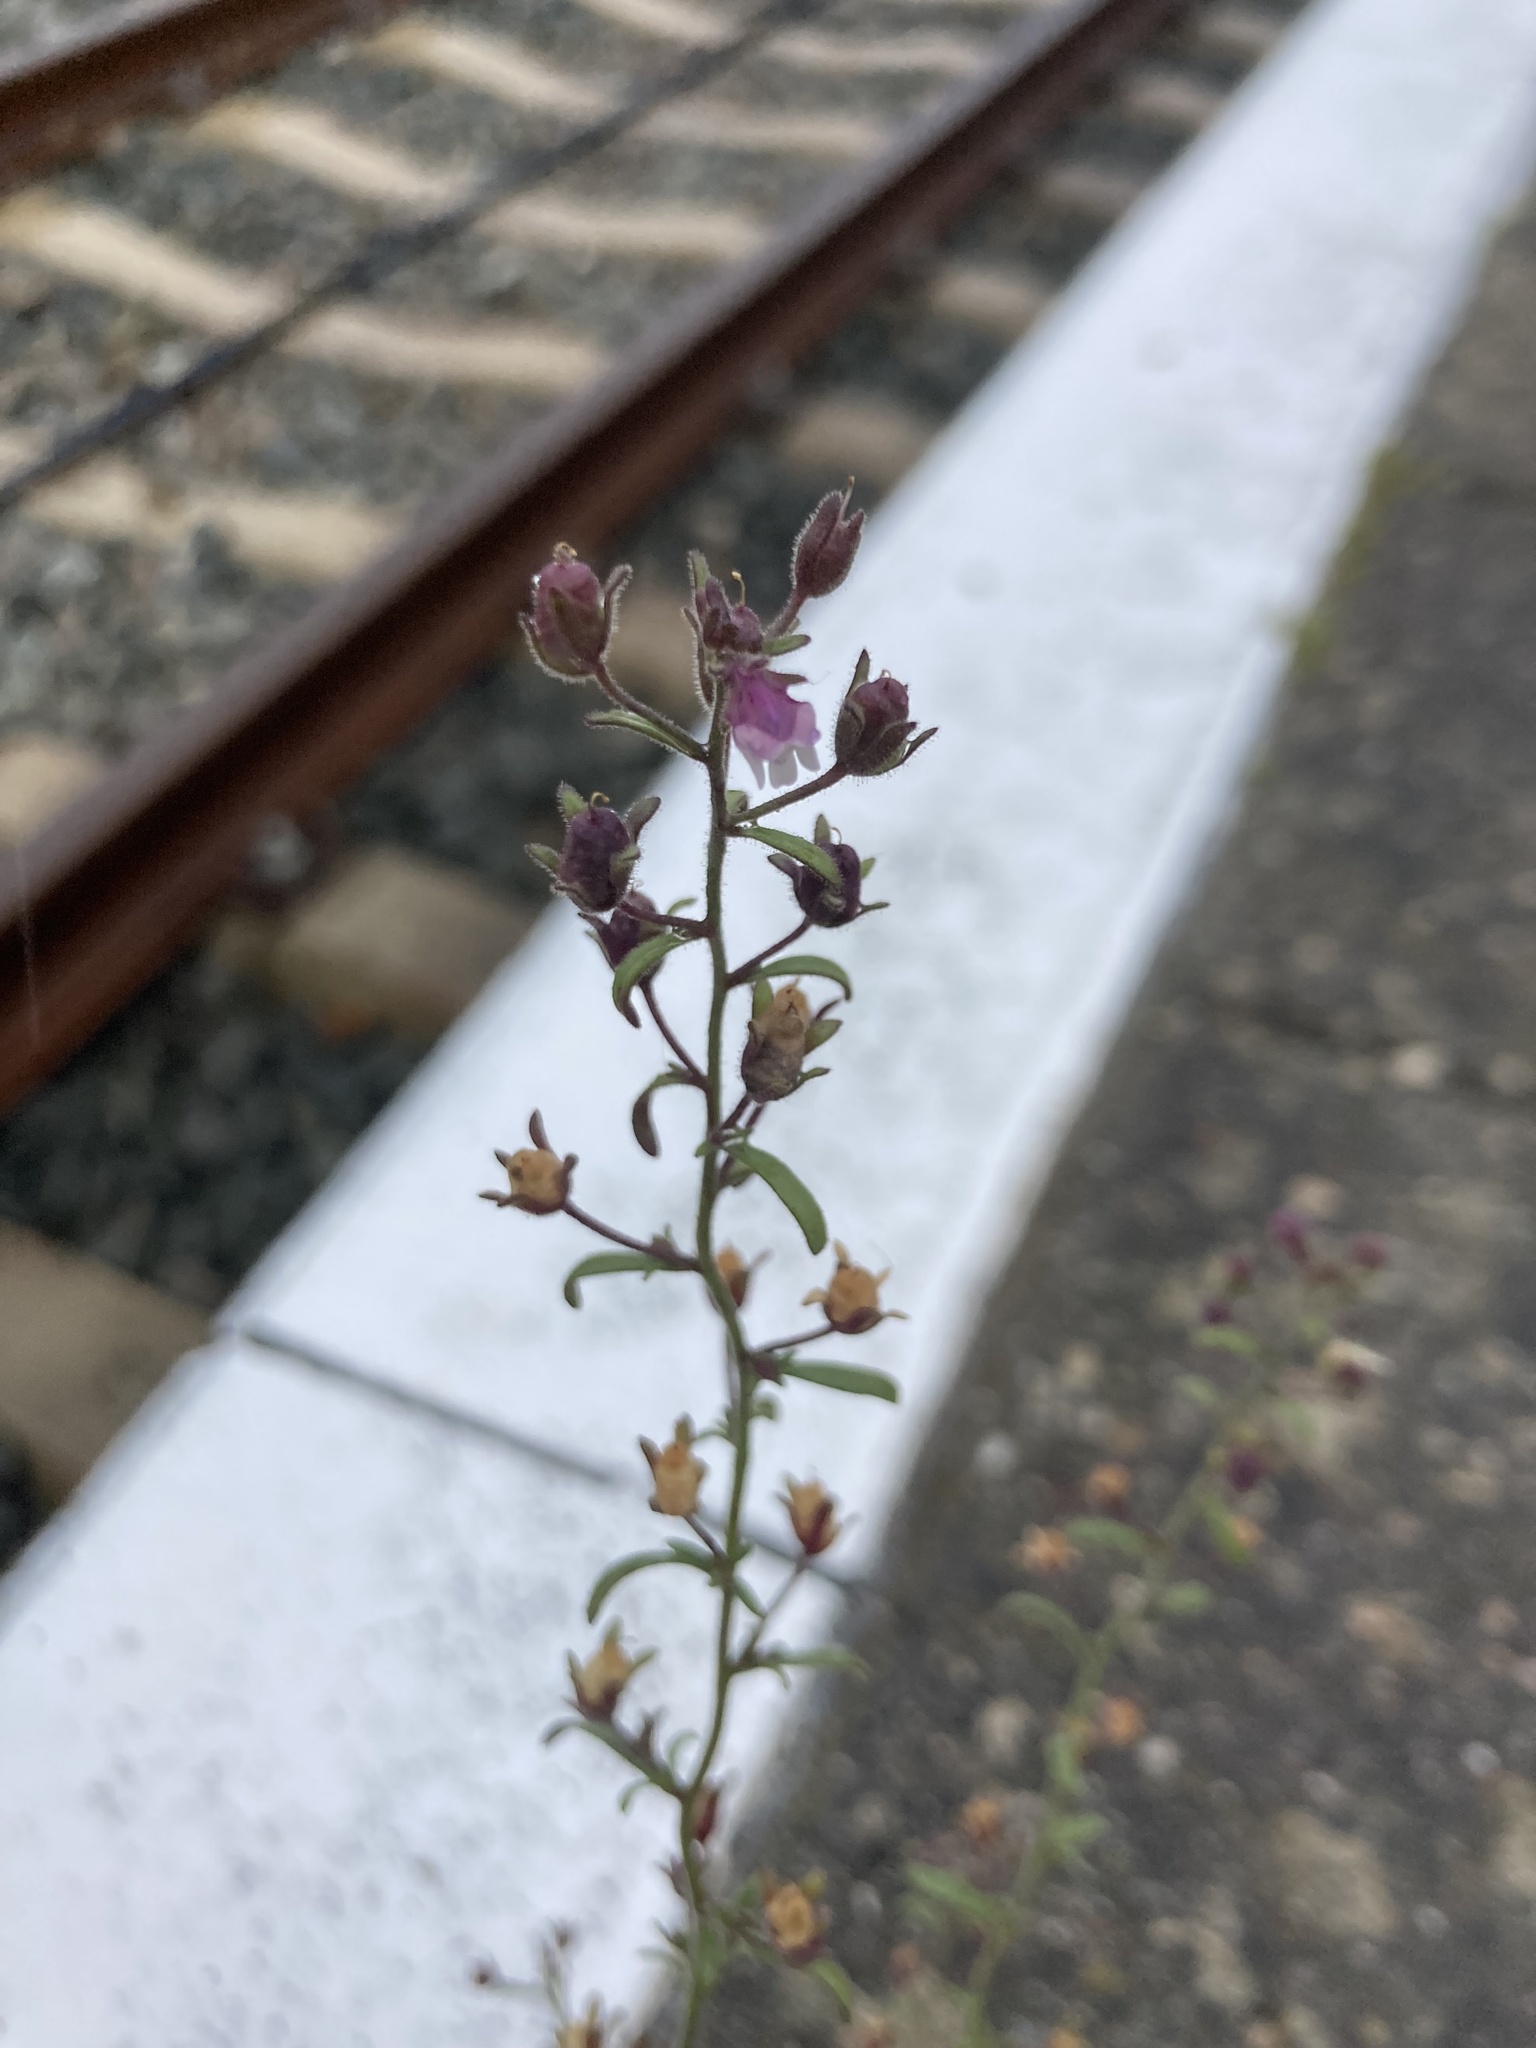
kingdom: Plantae
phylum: Tracheophyta
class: Magnoliopsida
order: Lamiales
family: Plantaginaceae
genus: Chaenorhinum
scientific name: Chaenorhinum minus
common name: Dwarf snapdragon
